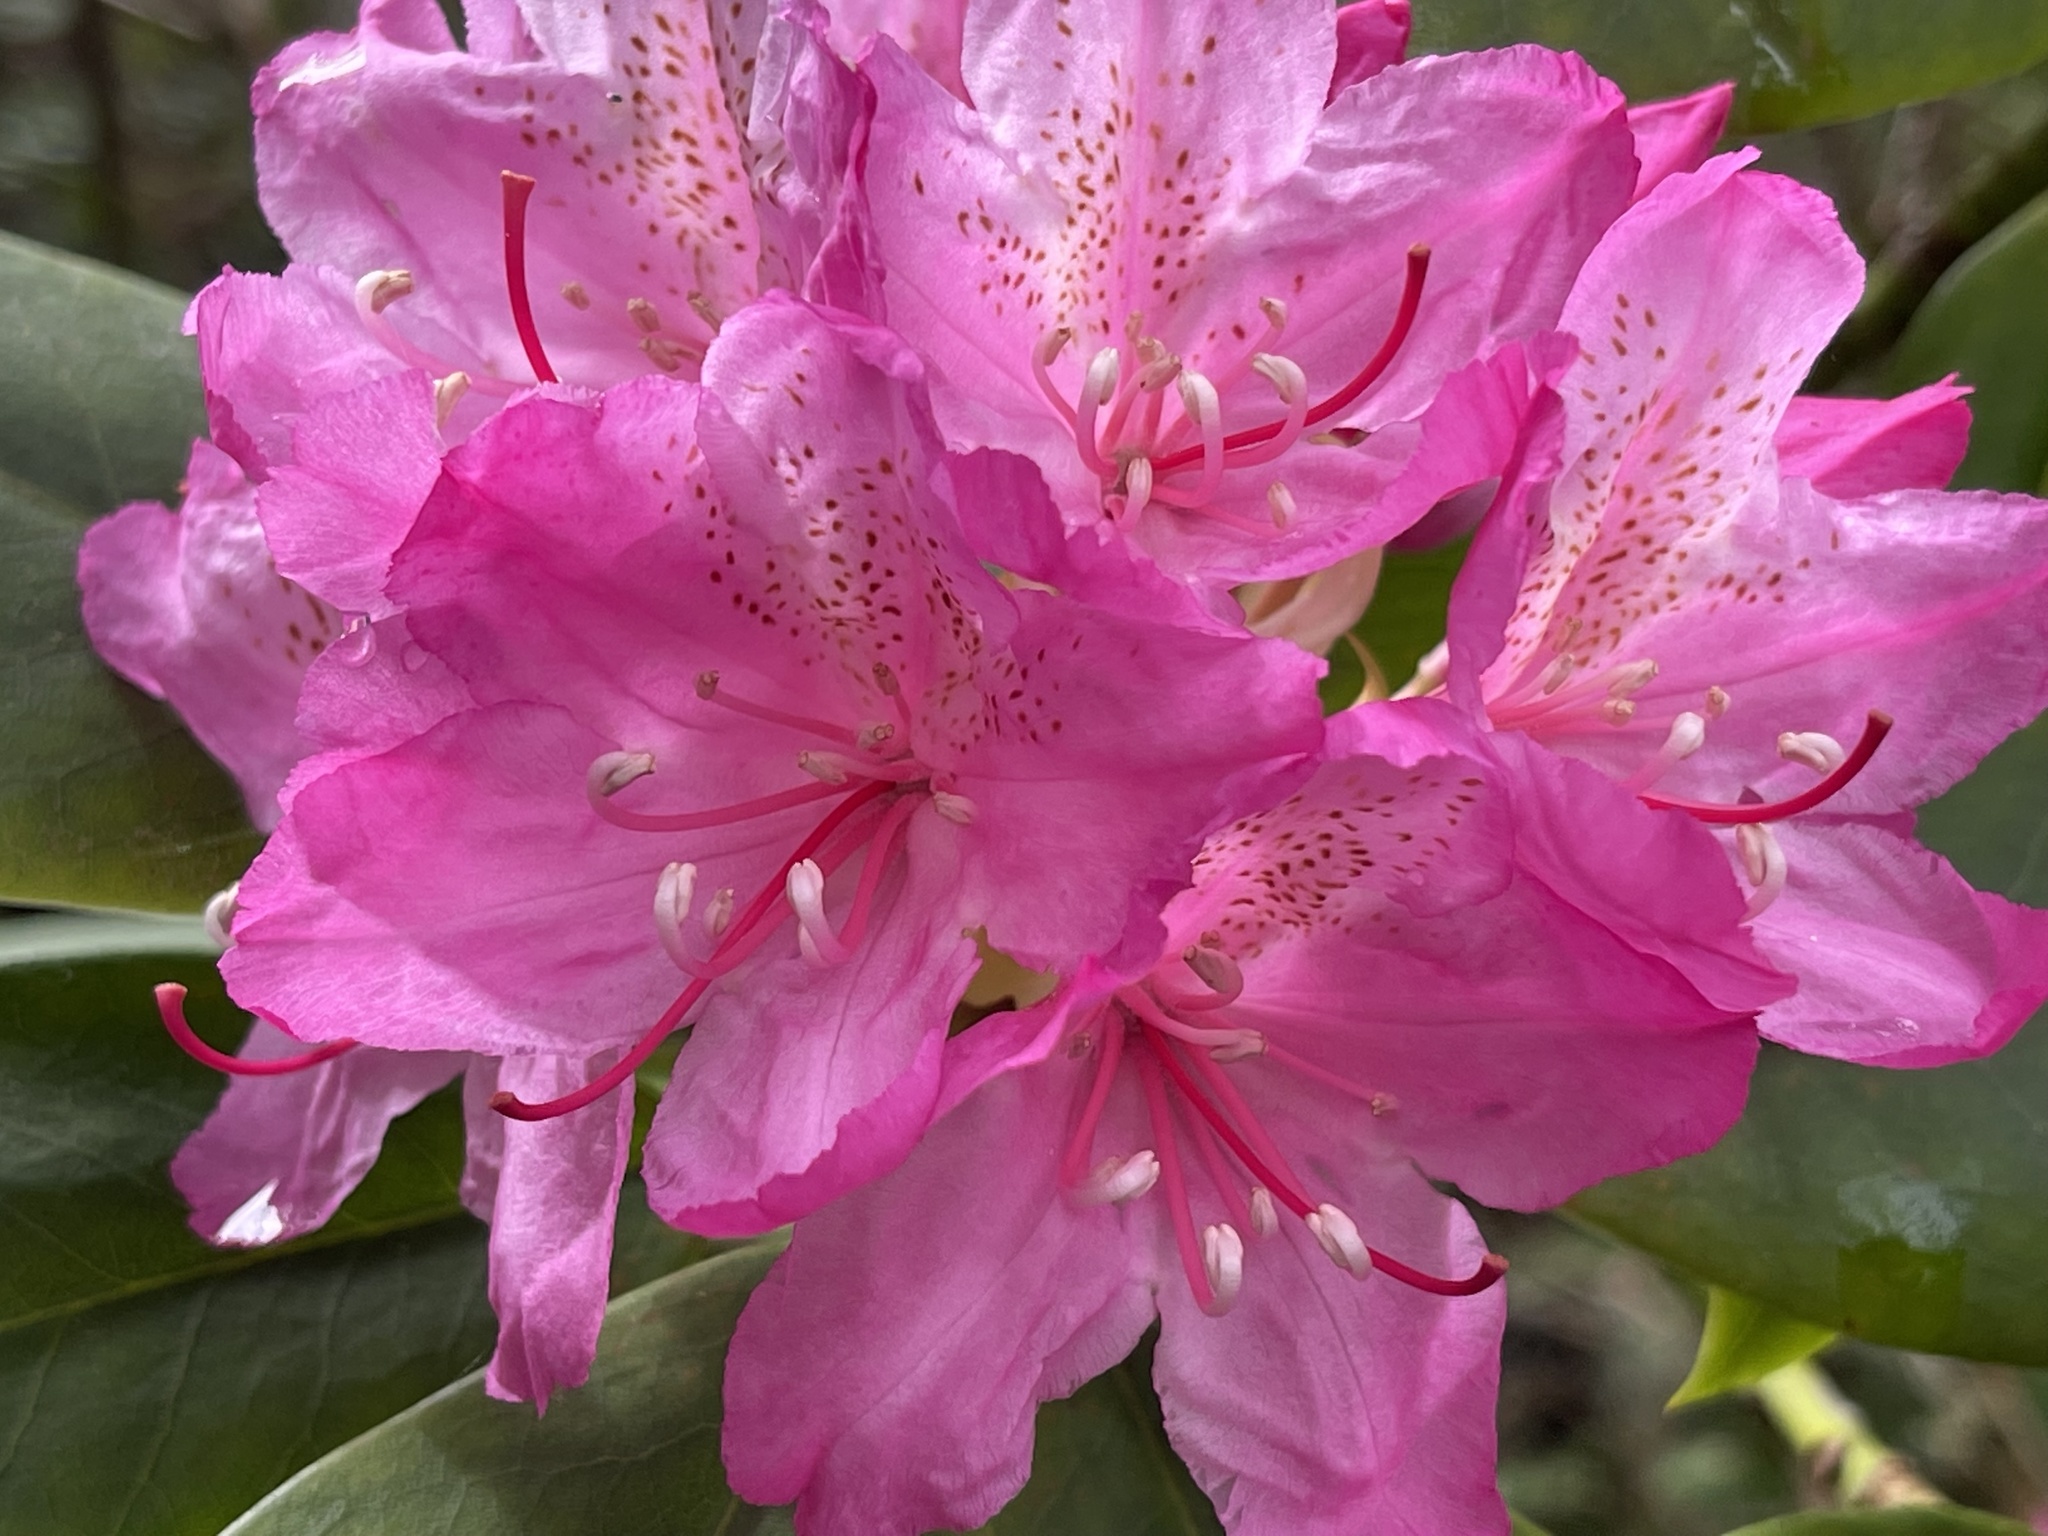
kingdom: Plantae
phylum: Tracheophyta
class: Magnoliopsida
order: Ericales
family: Ericaceae
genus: Rhododendron
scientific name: Rhododendron macrophyllum
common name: California rose bay
